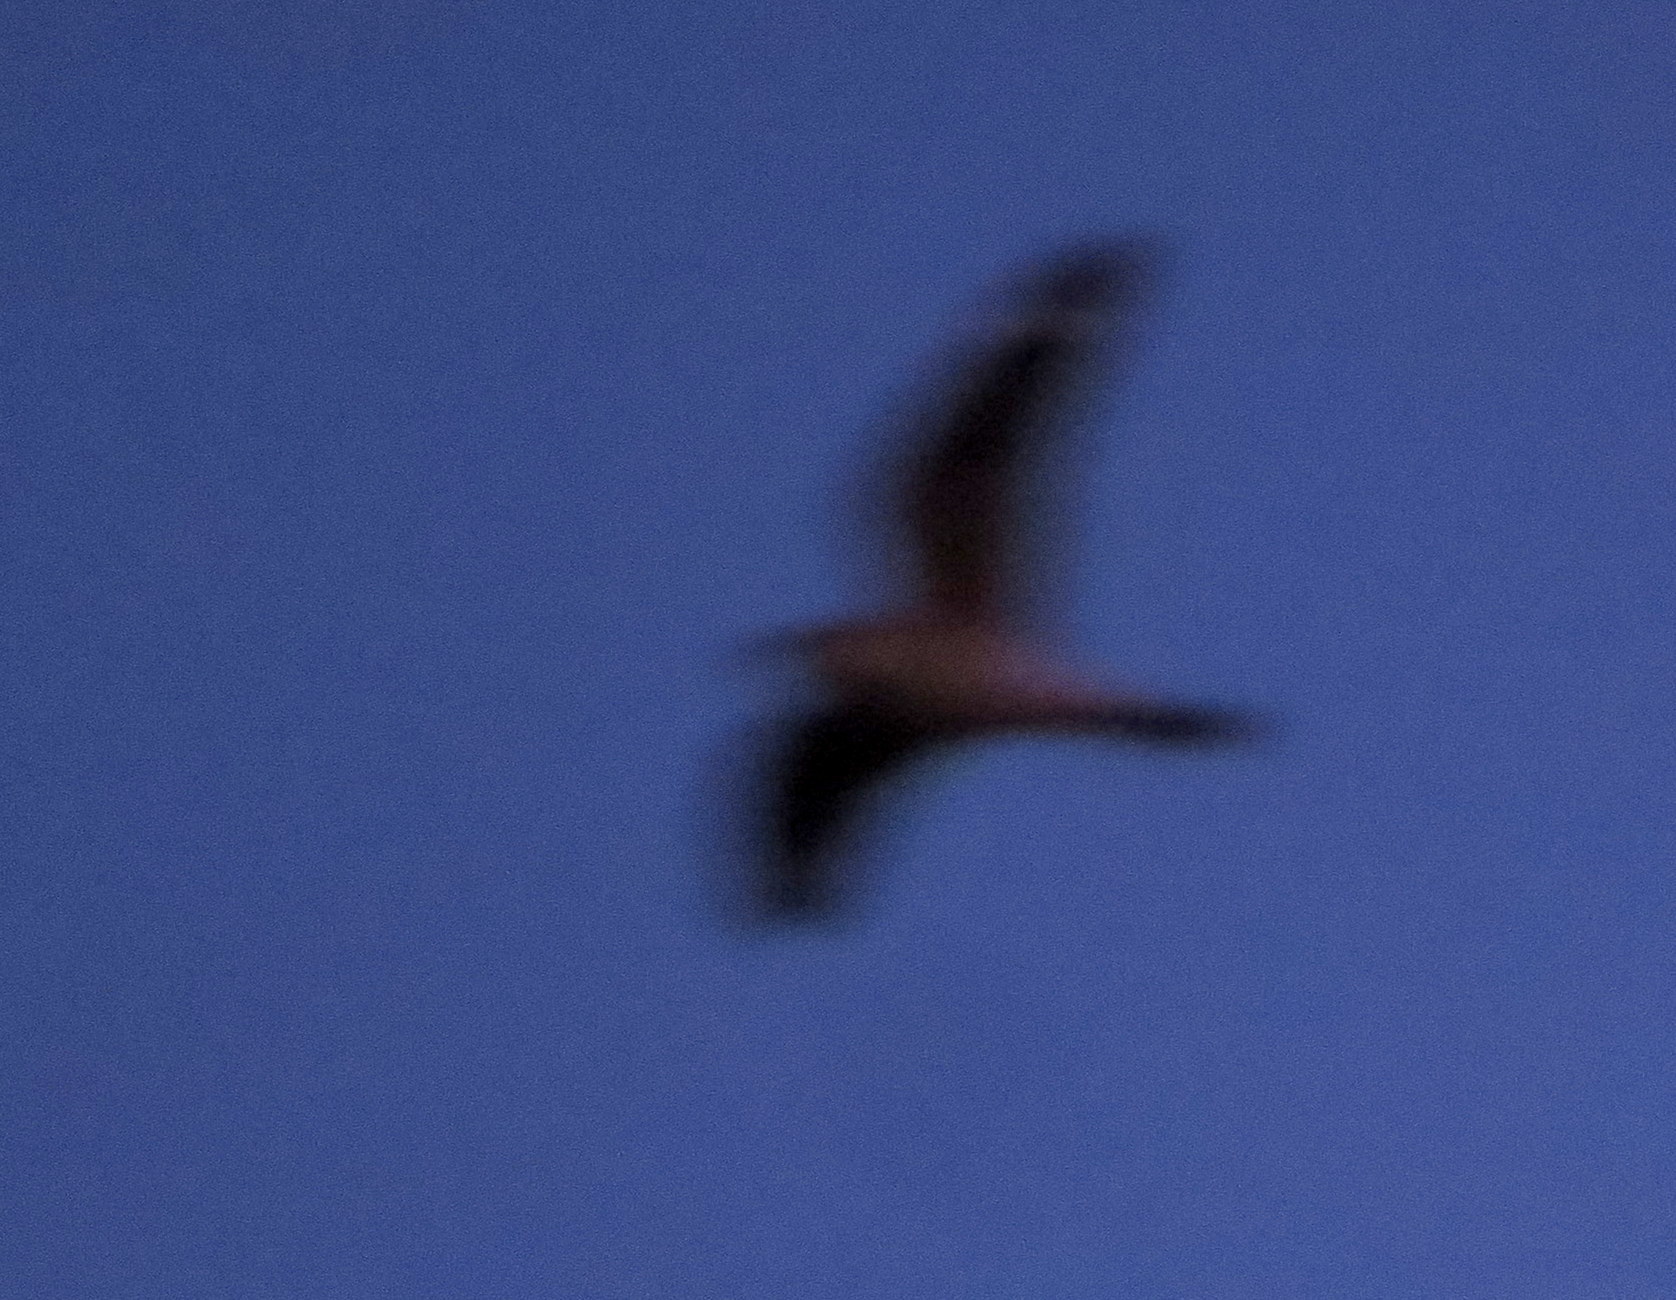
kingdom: Animalia
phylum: Chordata
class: Aves
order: Caprimulgiformes
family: Caprimulgidae
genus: Chordeiles
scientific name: Chordeiles acutipennis
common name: Lesser nighthawk
